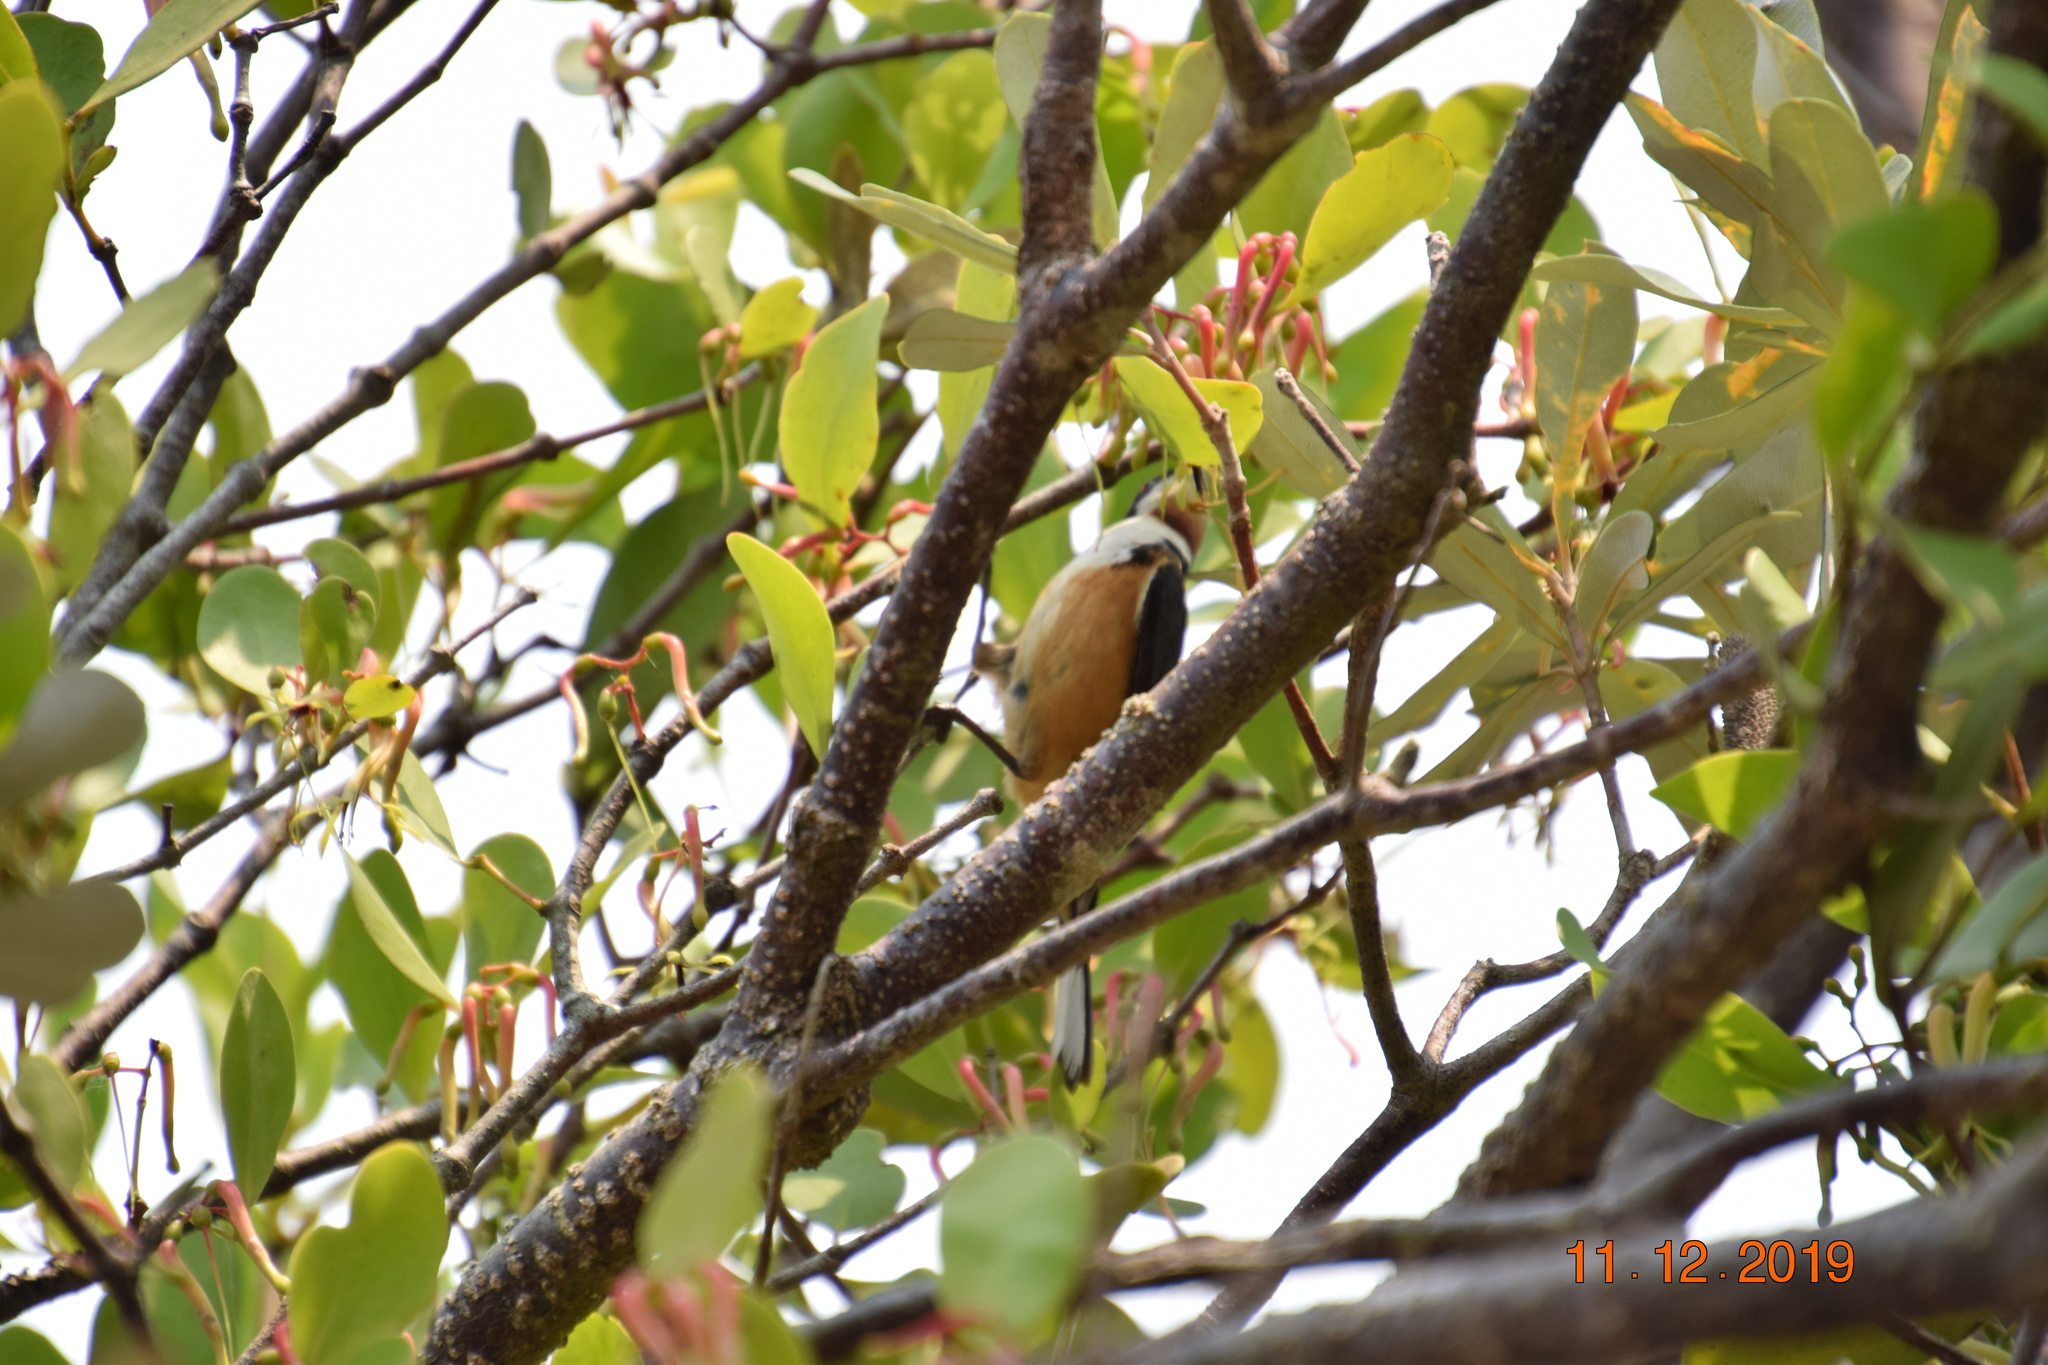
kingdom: Animalia
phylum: Chordata
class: Aves
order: Passeriformes
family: Meliphagidae
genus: Acanthorhynchus
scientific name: Acanthorhynchus tenuirostris
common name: Eastern spinebill
